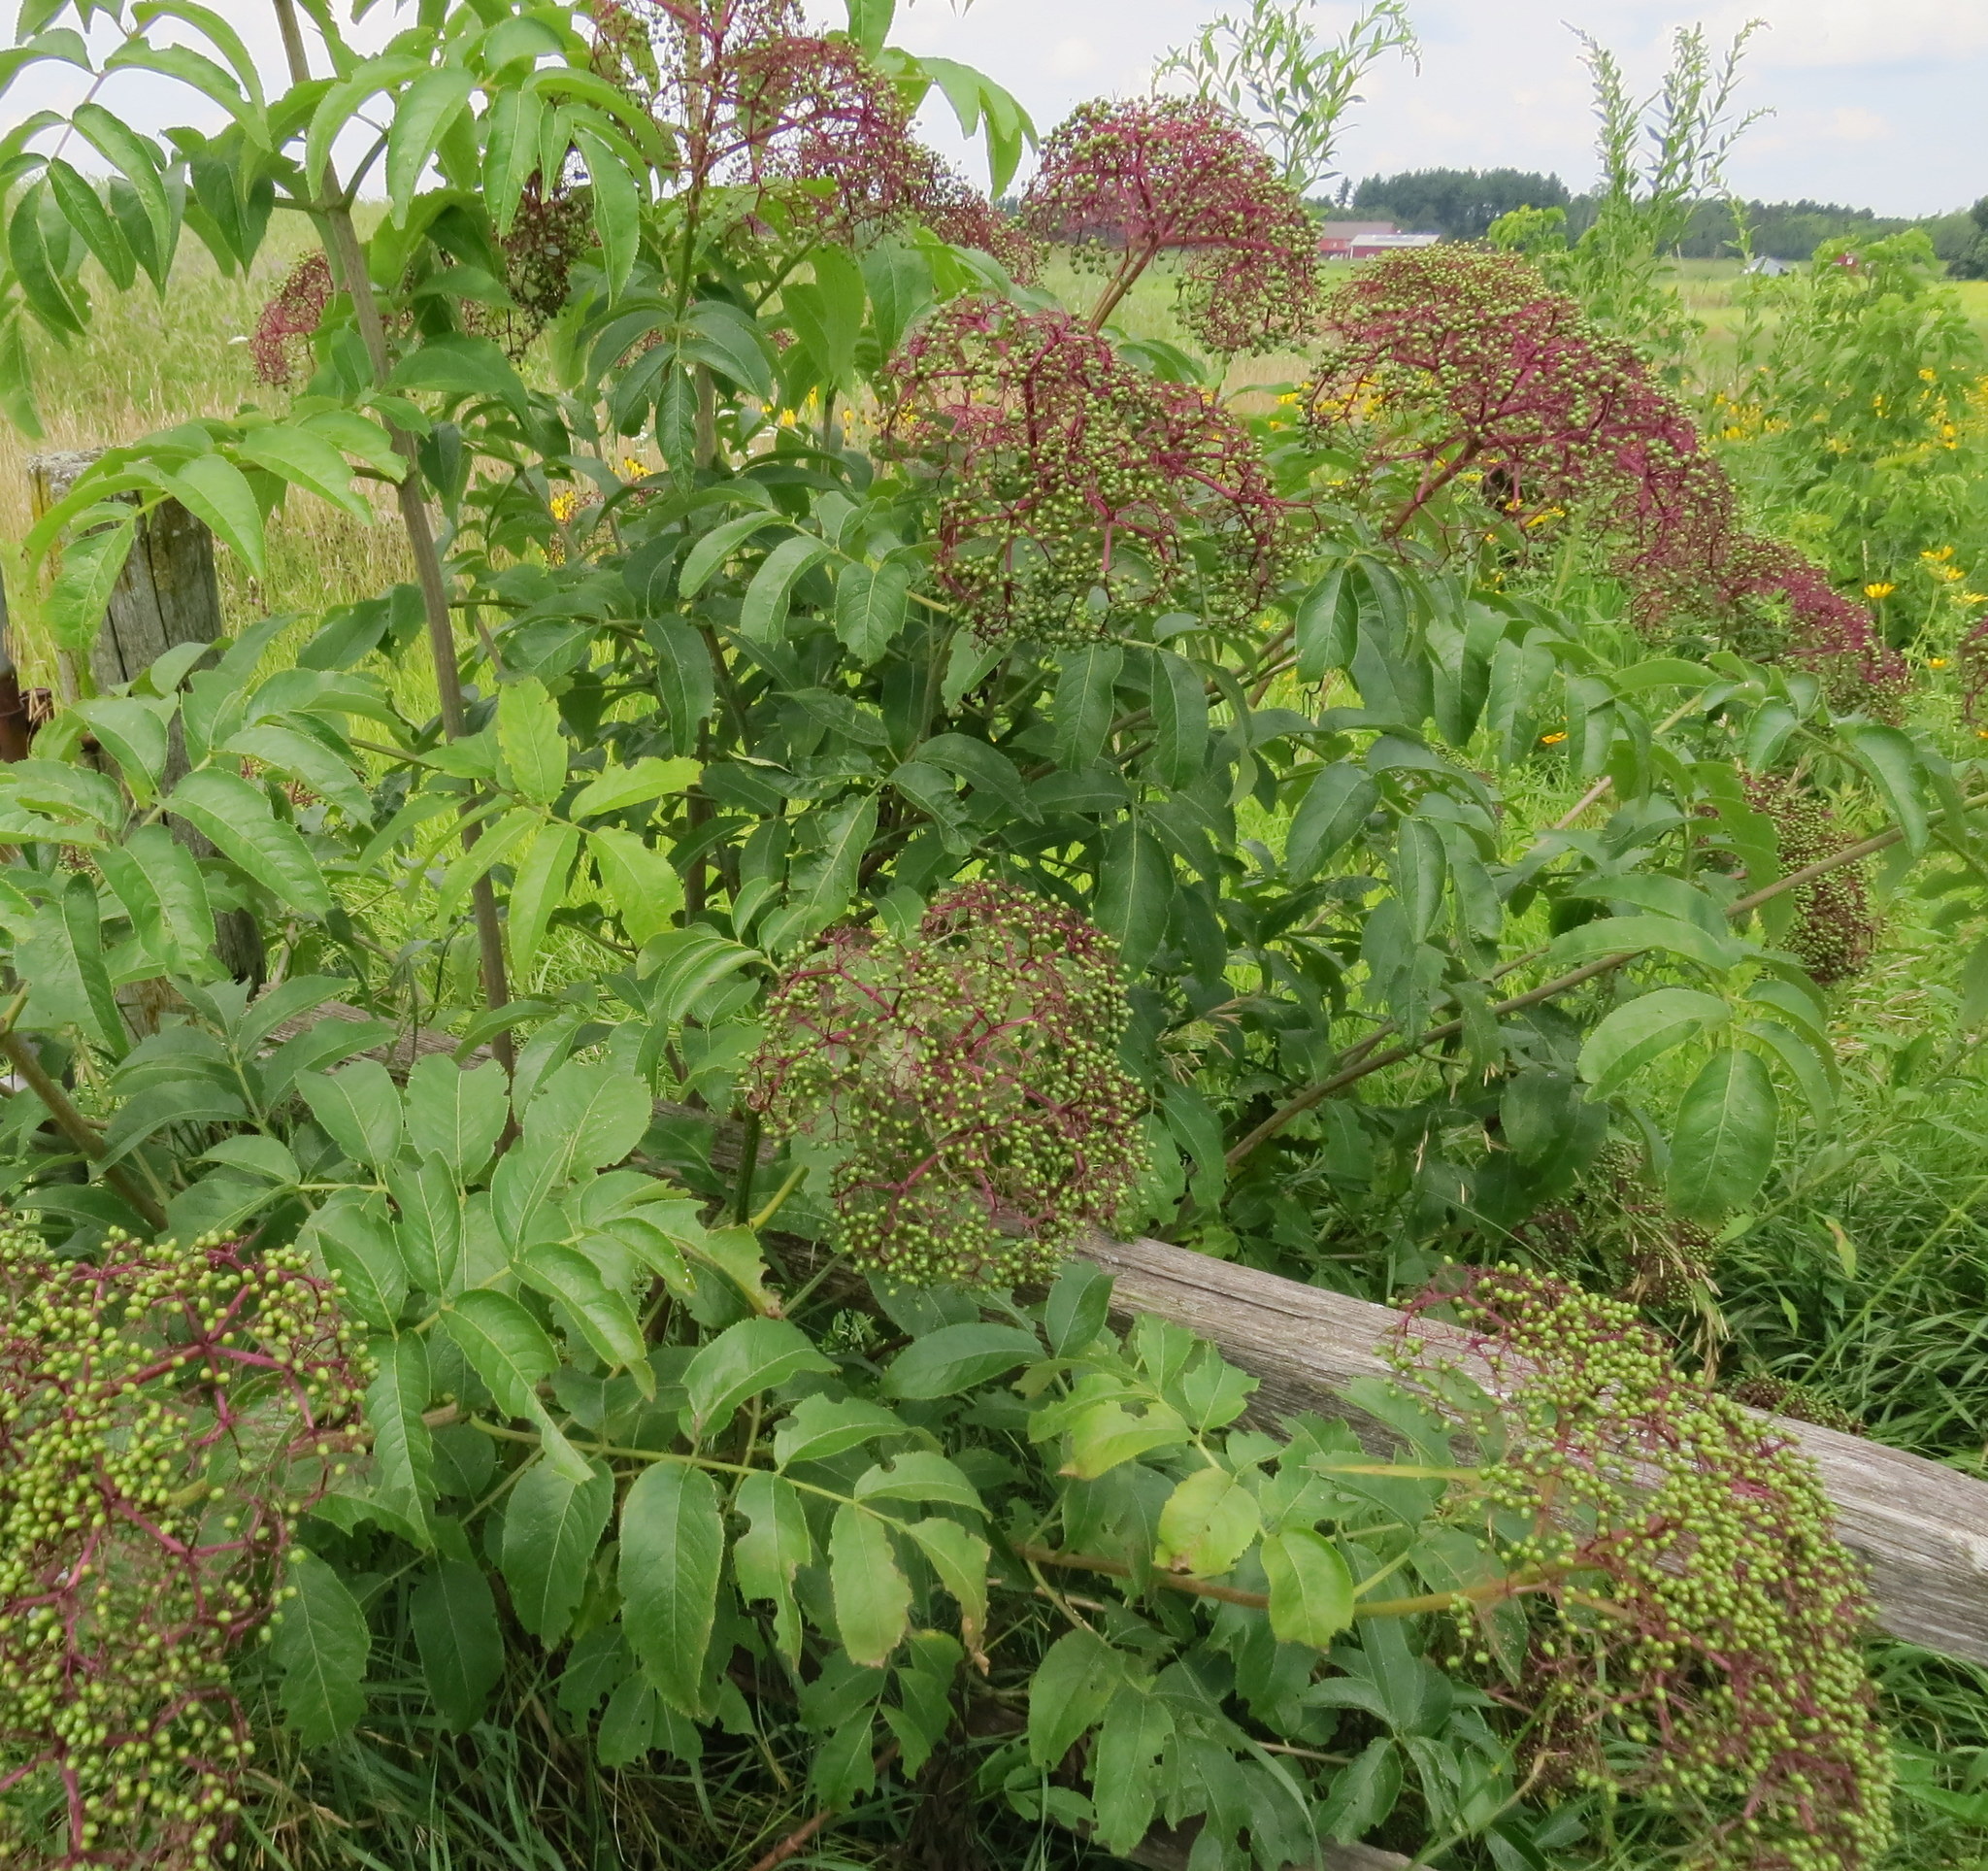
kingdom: Plantae
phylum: Tracheophyta
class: Magnoliopsida
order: Dipsacales
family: Viburnaceae
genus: Sambucus
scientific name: Sambucus canadensis
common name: American elder
